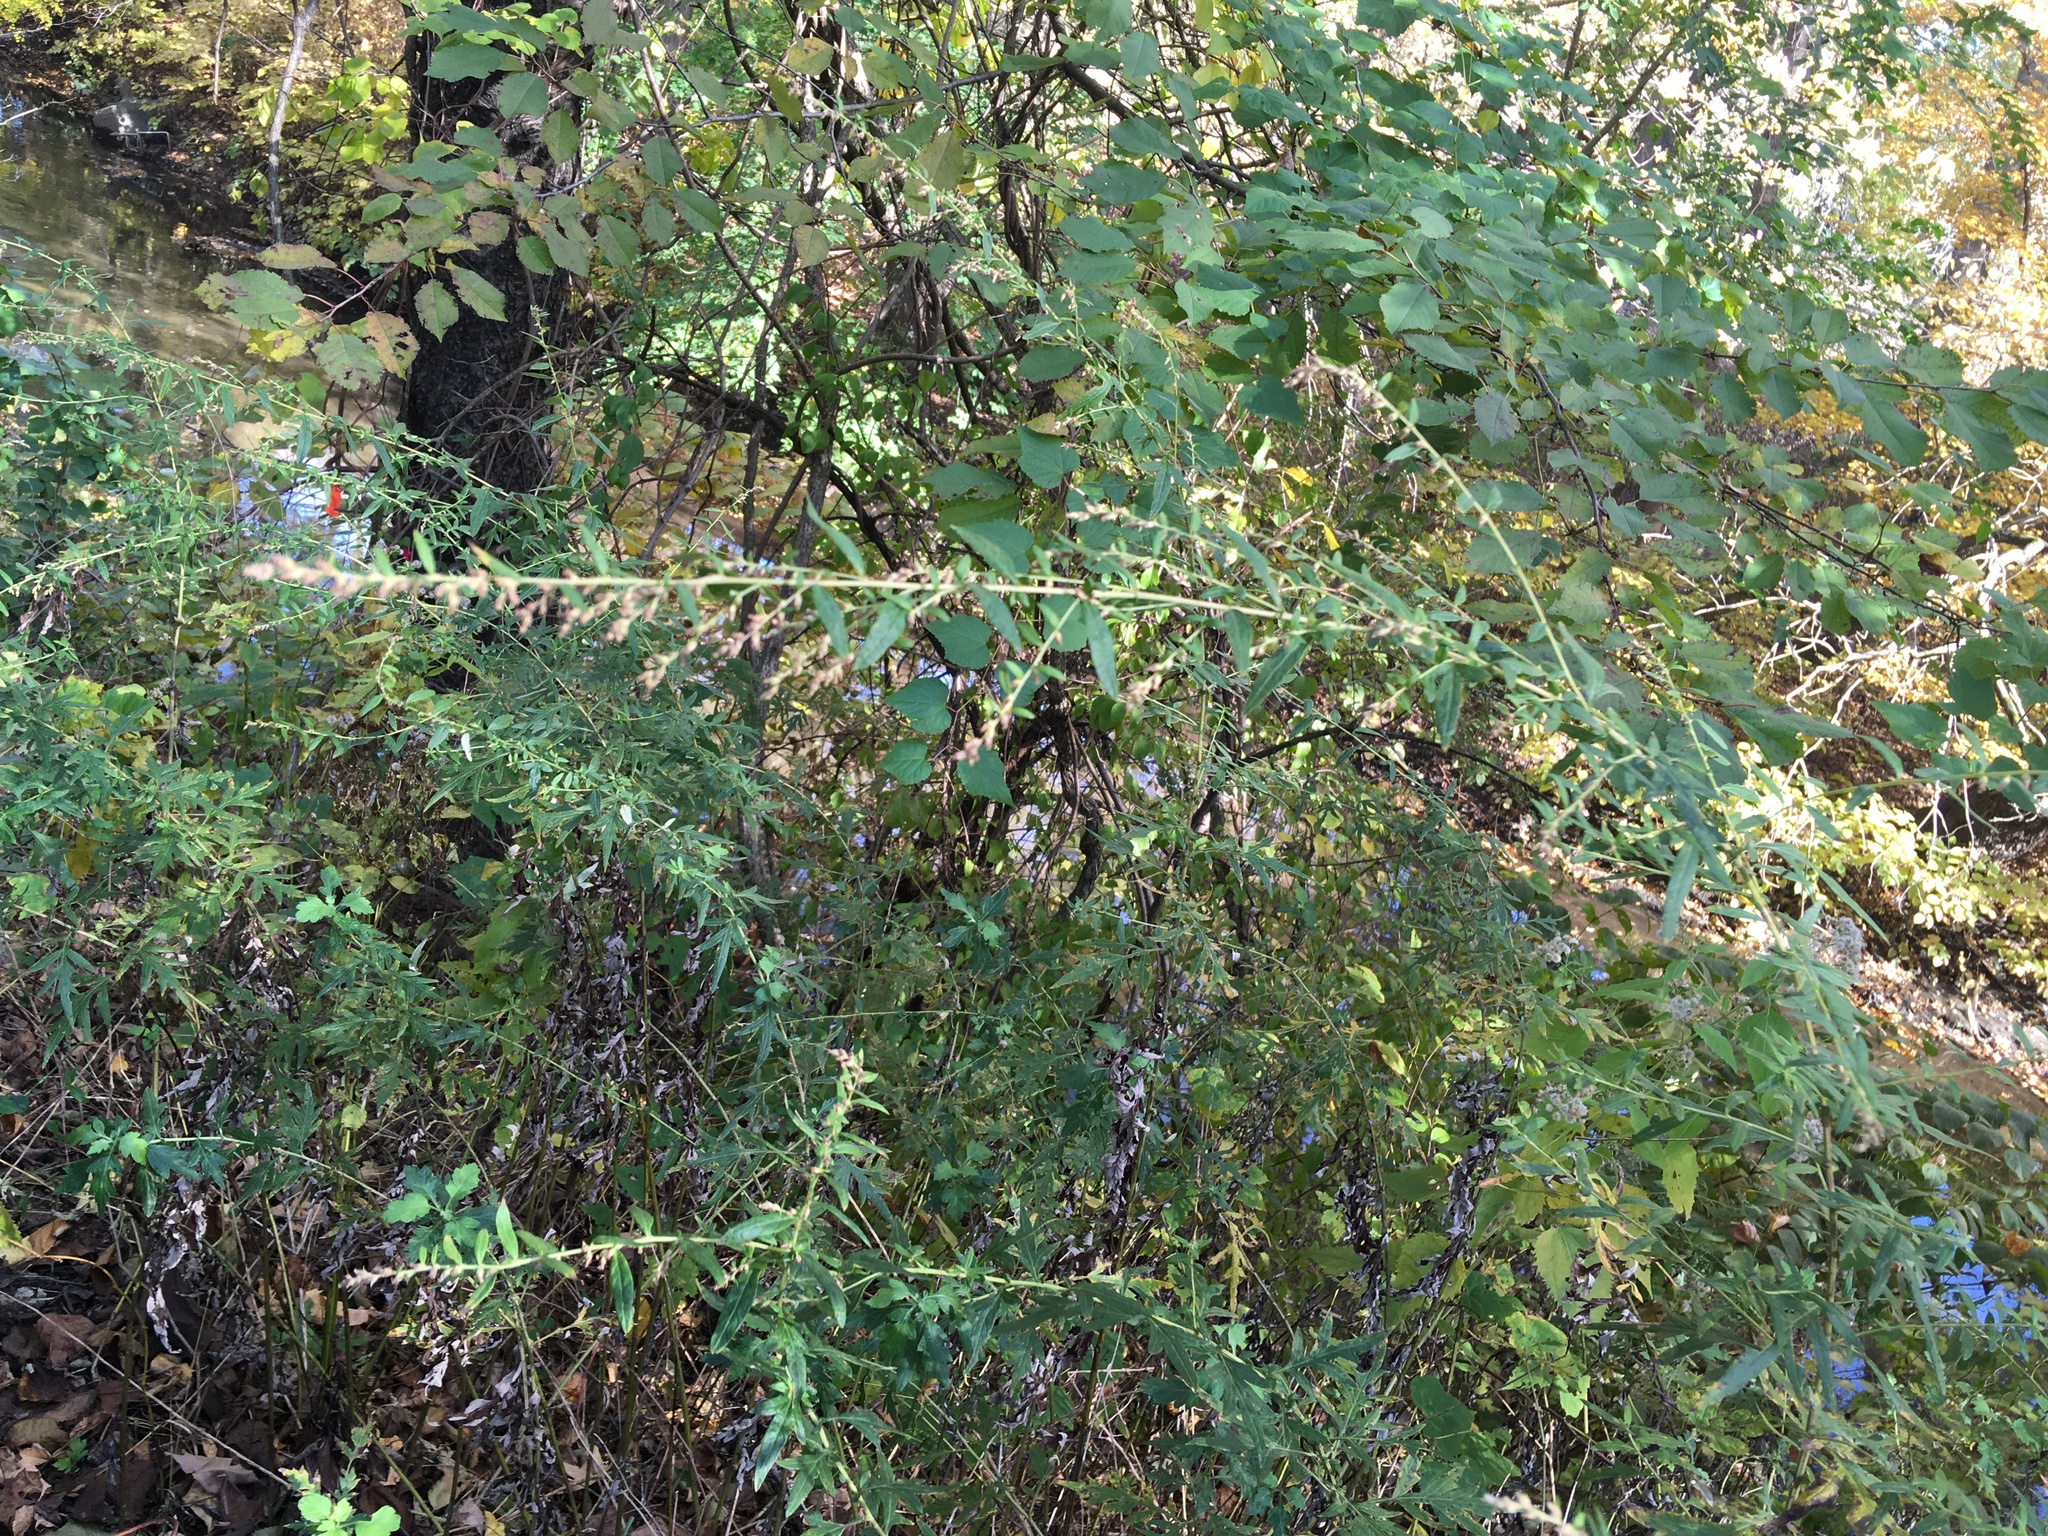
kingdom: Plantae
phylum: Tracheophyta
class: Magnoliopsida
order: Asterales
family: Asteraceae
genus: Artemisia
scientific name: Artemisia vulgaris
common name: Mugwort
